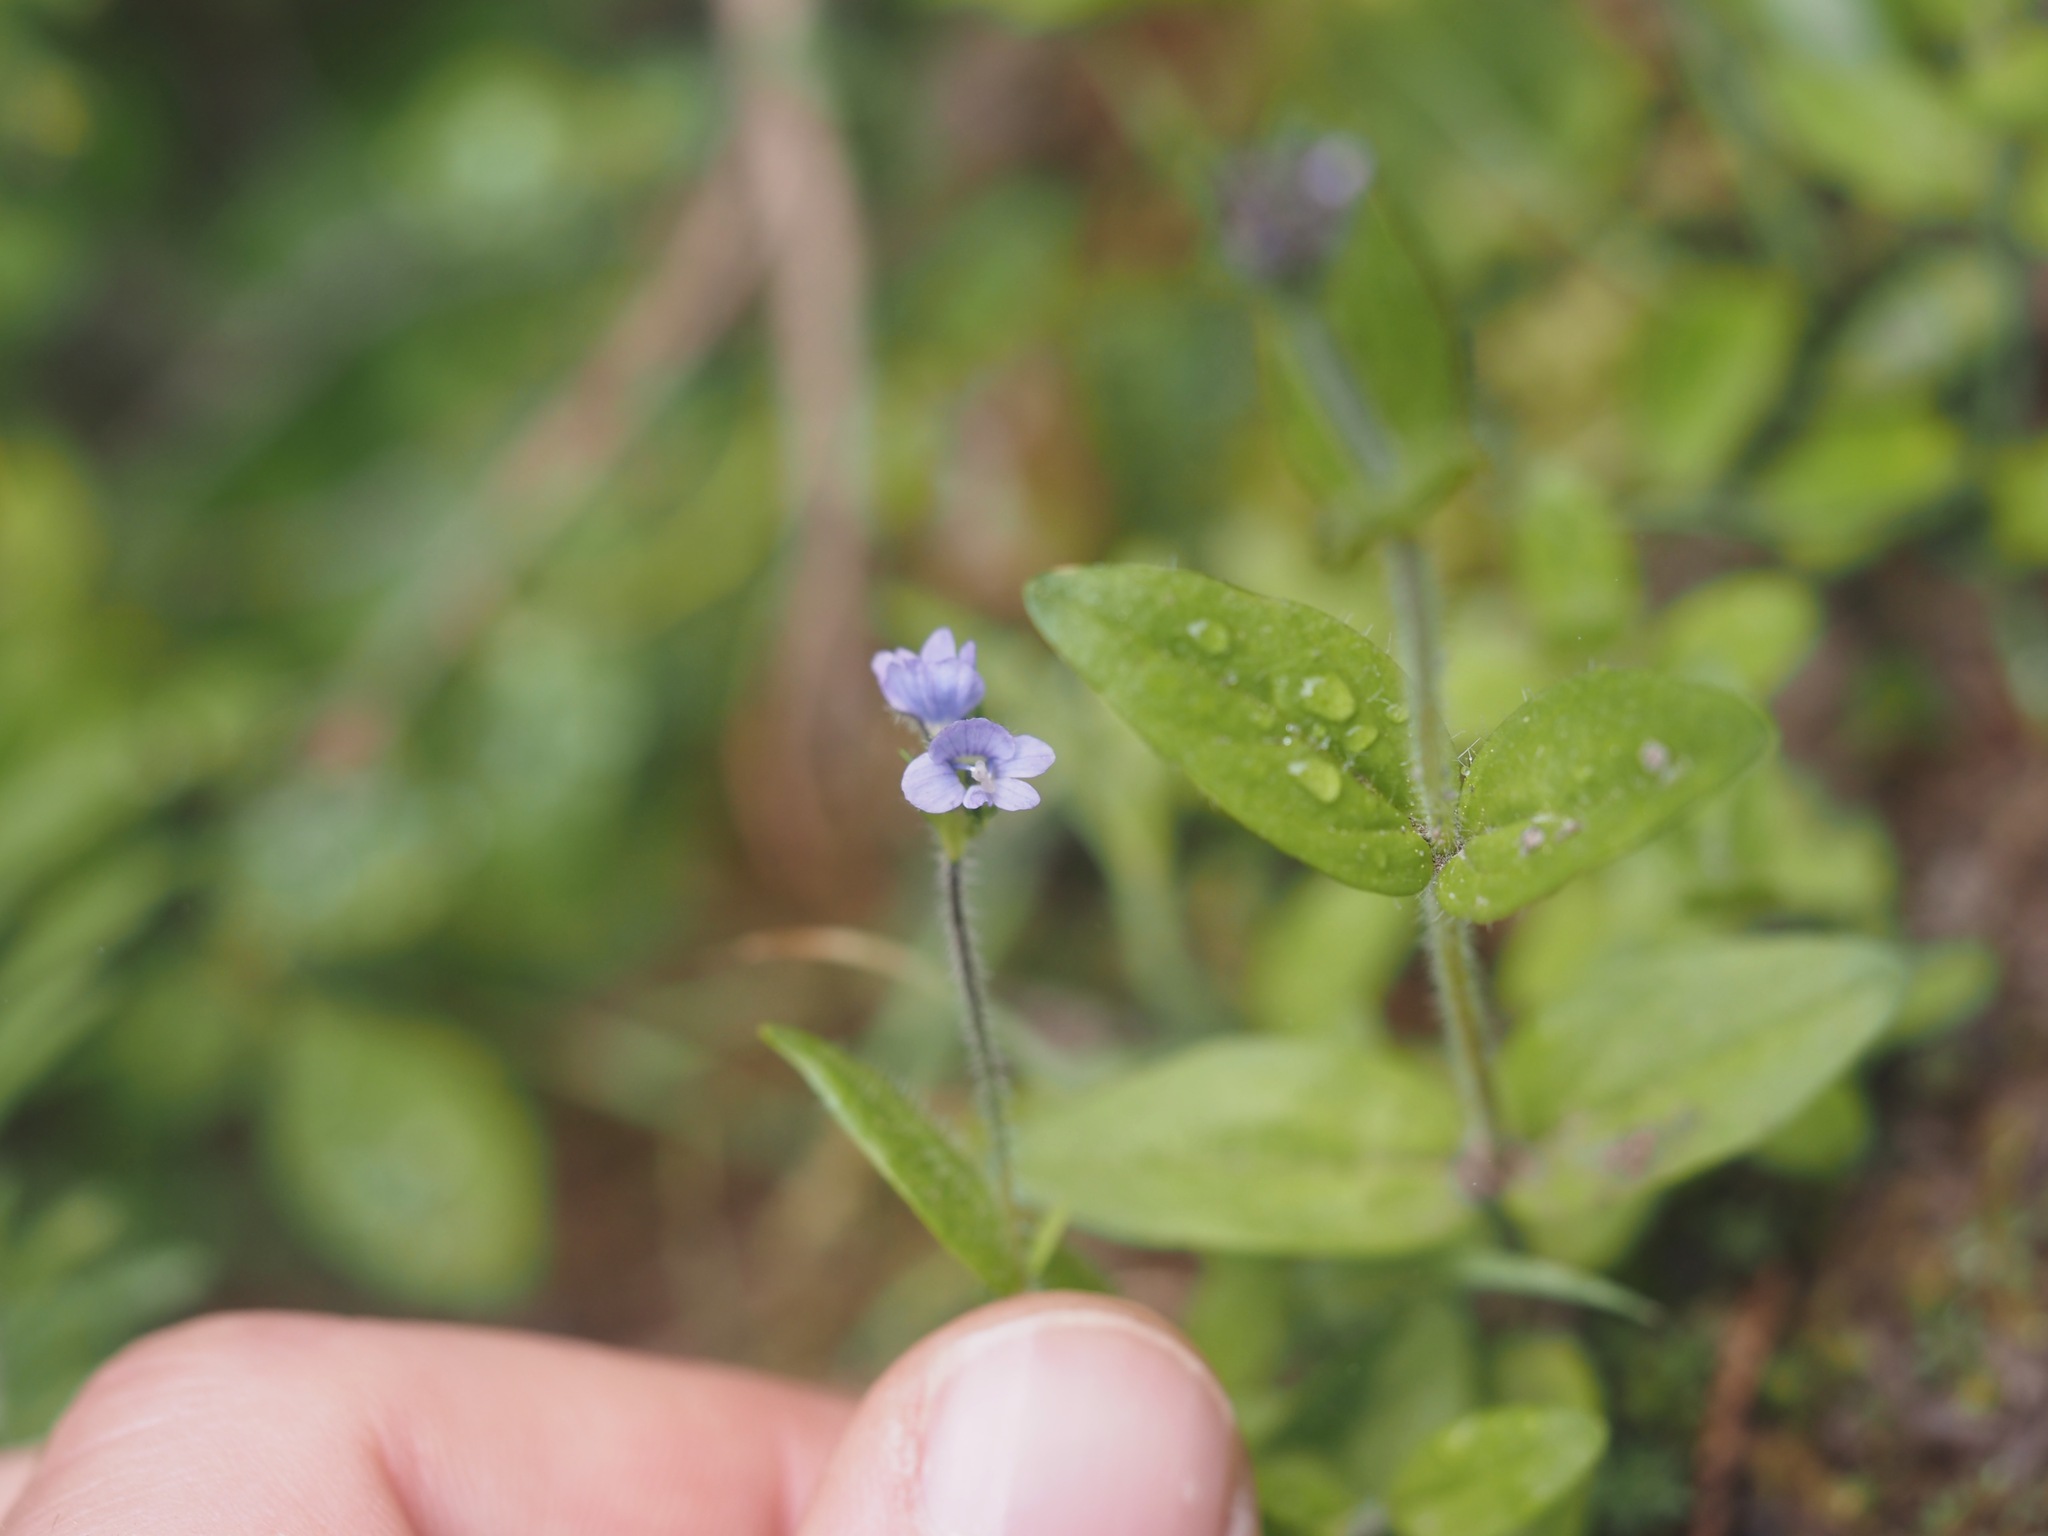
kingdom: Plantae
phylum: Tracheophyta
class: Magnoliopsida
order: Lamiales
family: Plantaginaceae
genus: Veronica
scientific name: Veronica wormskjoldii
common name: American alpine speedwell
